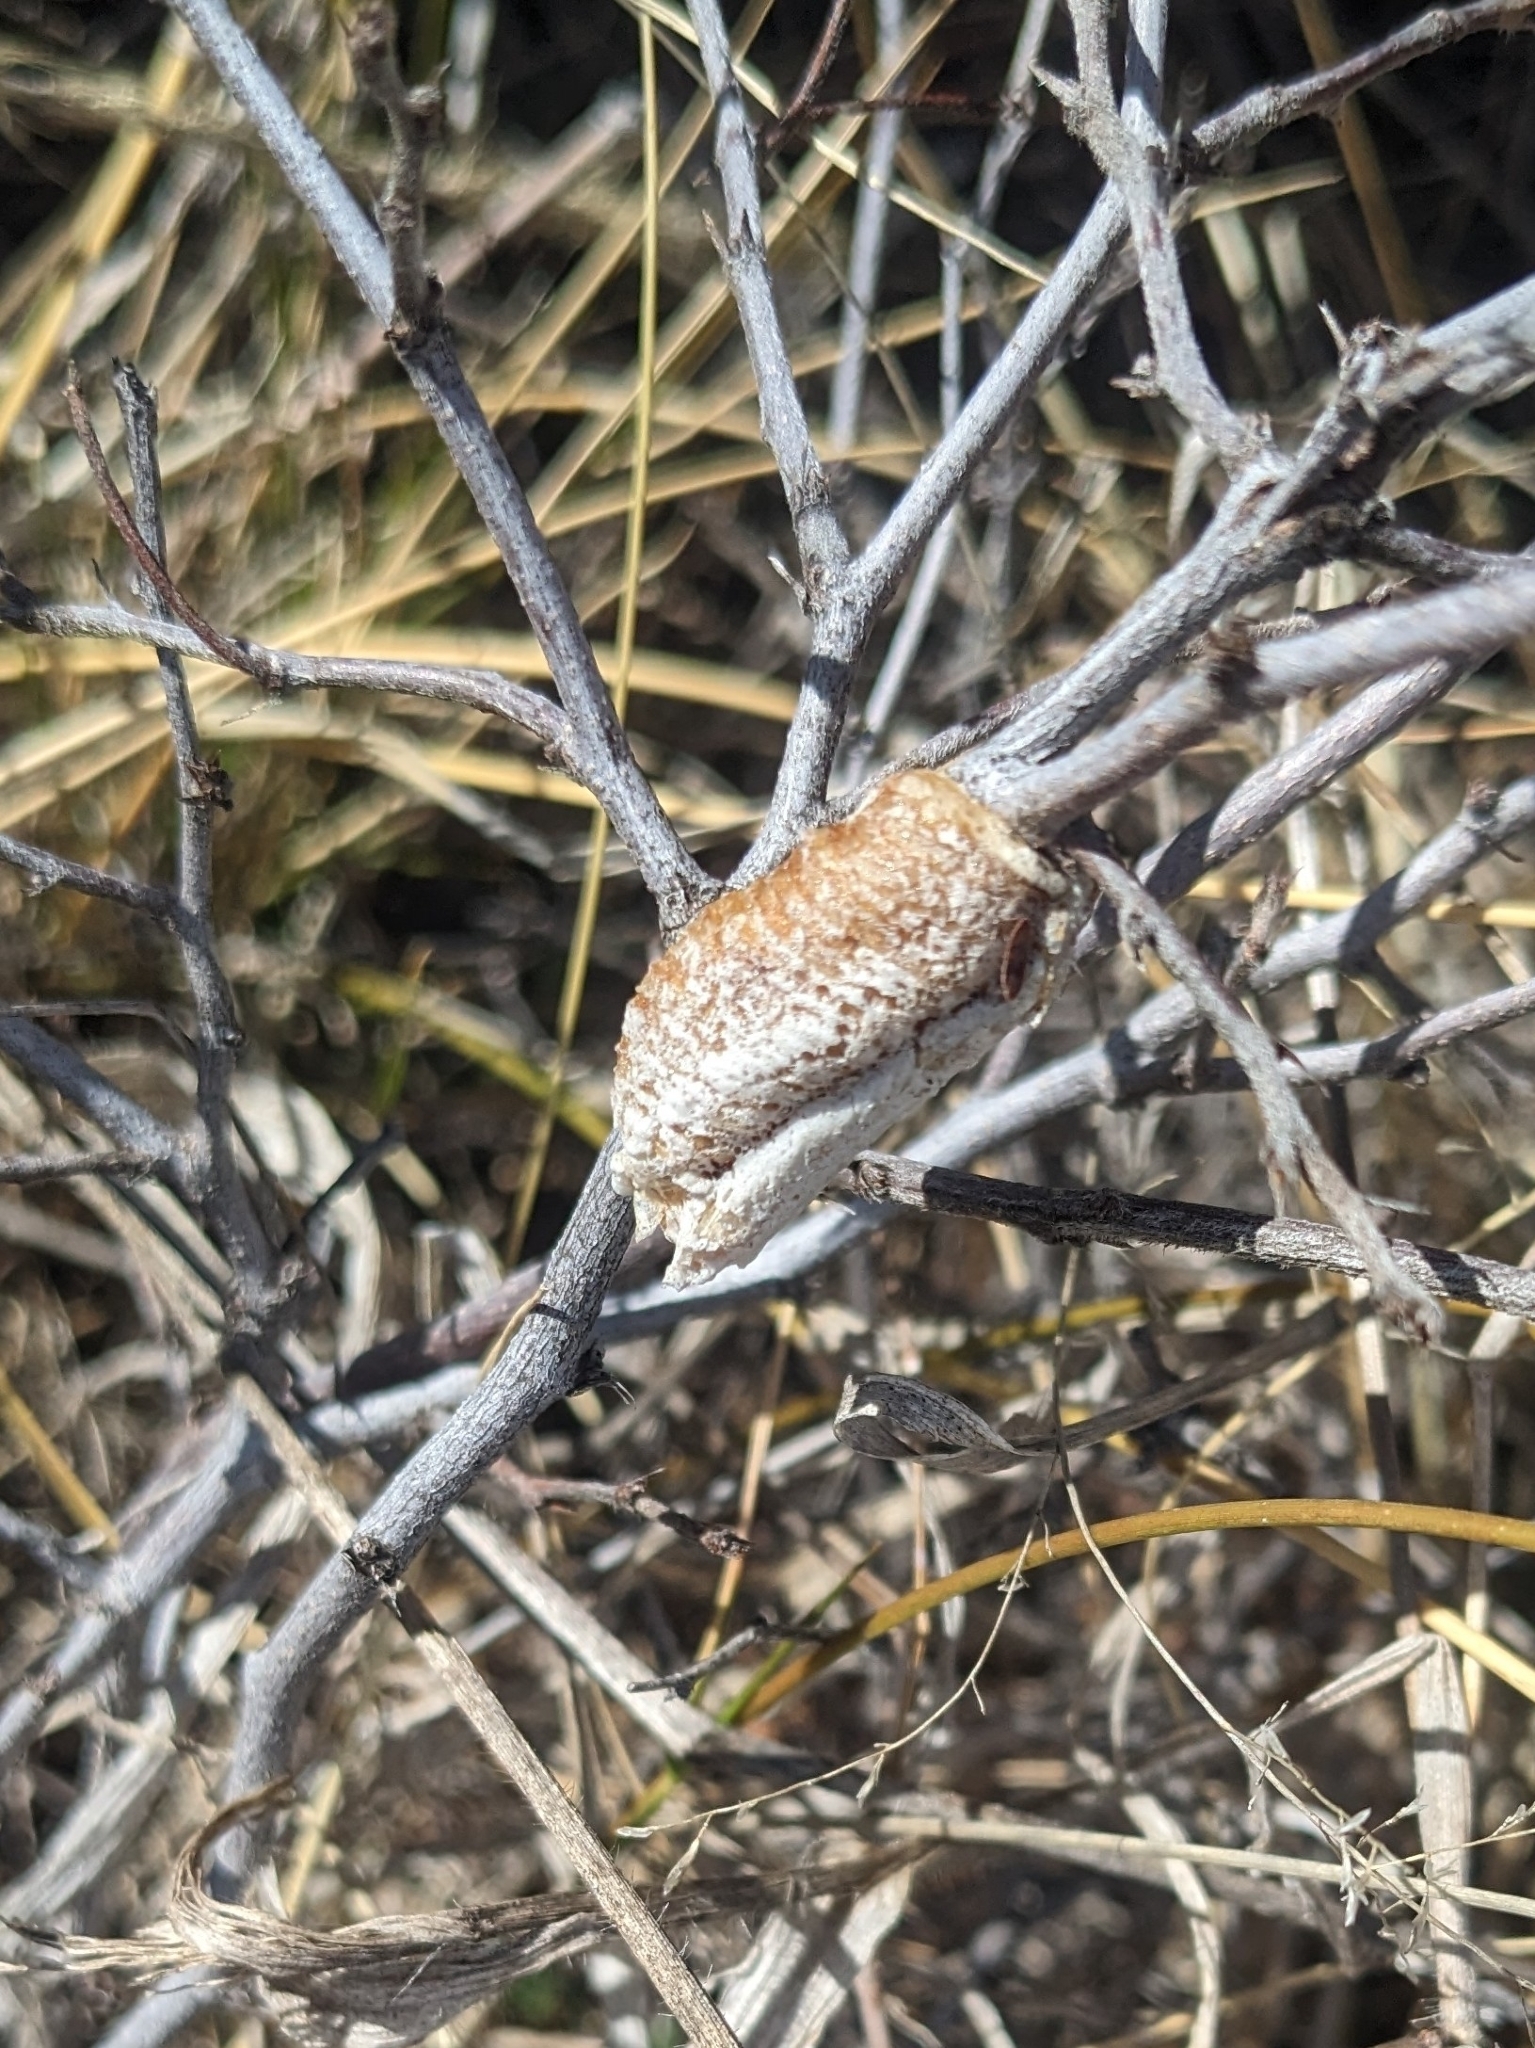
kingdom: Animalia
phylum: Arthropoda
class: Insecta
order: Mantodea
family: Mantidae
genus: Stagmomantis
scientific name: Stagmomantis californica
